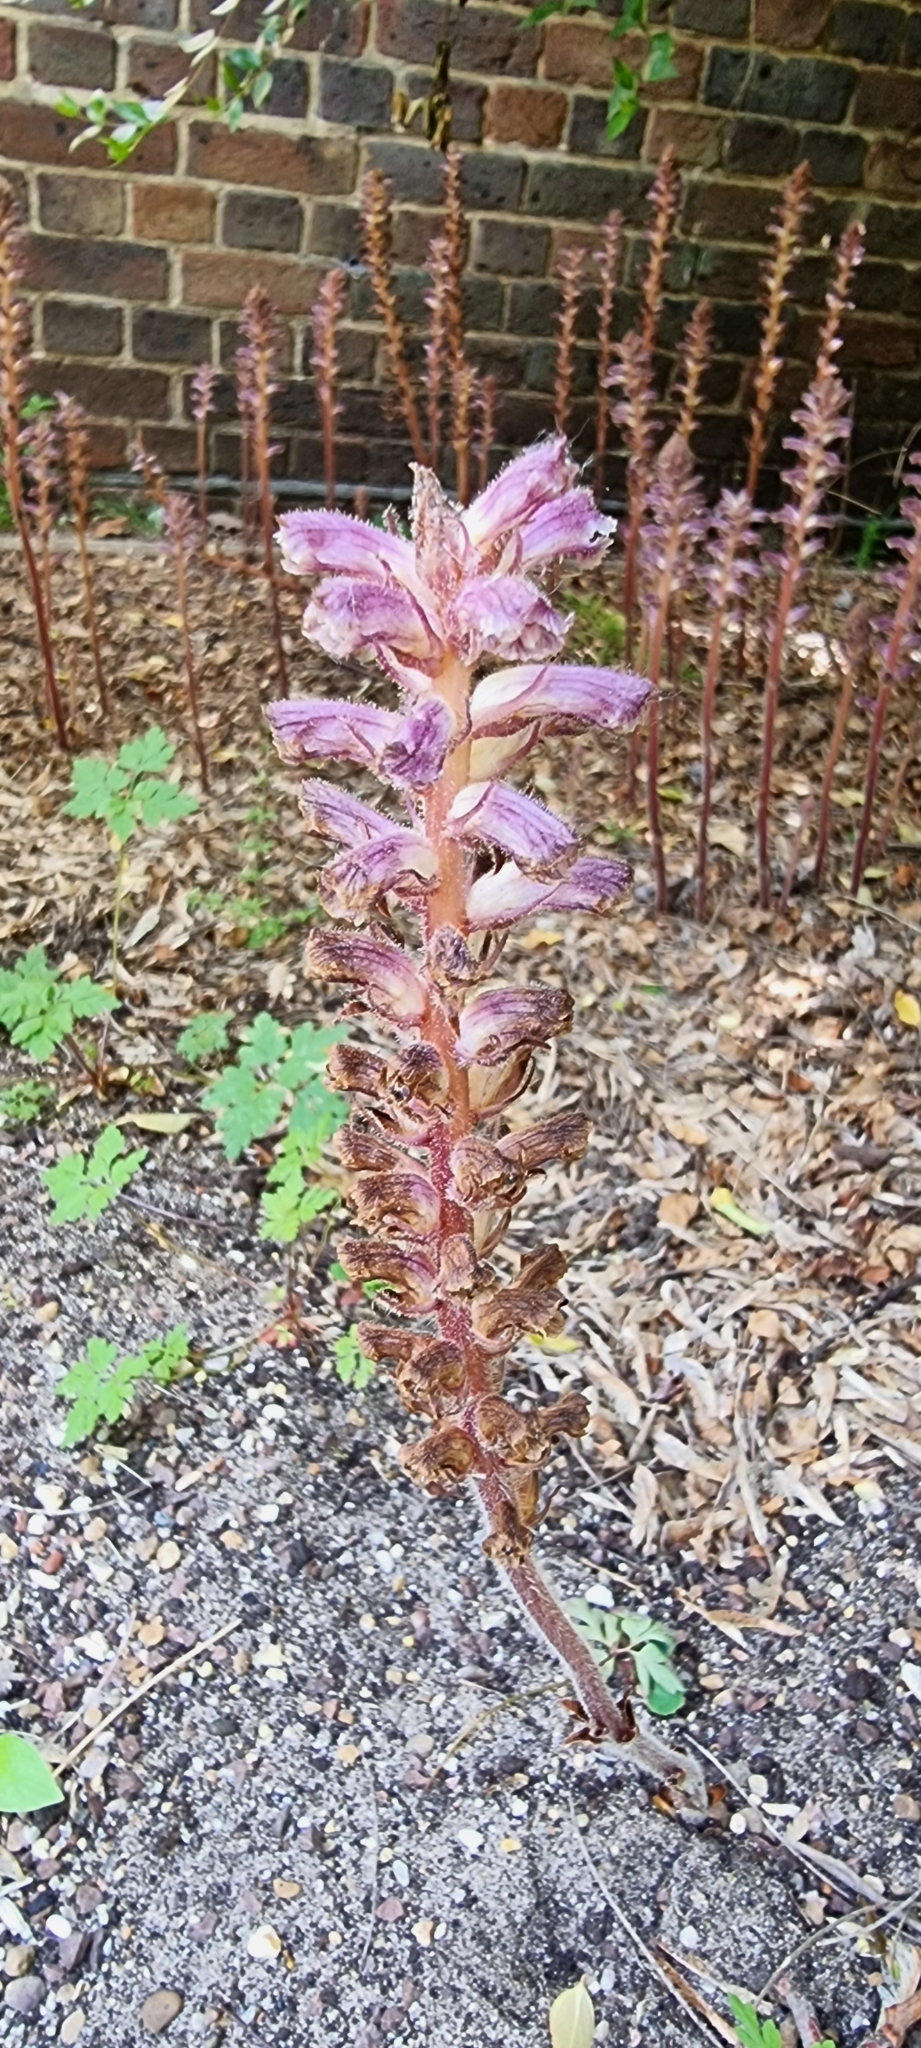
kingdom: Plantae
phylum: Tracheophyta
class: Magnoliopsida
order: Lamiales
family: Orobanchaceae
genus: Orobanche
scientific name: Orobanche minor
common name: Common broomrape
